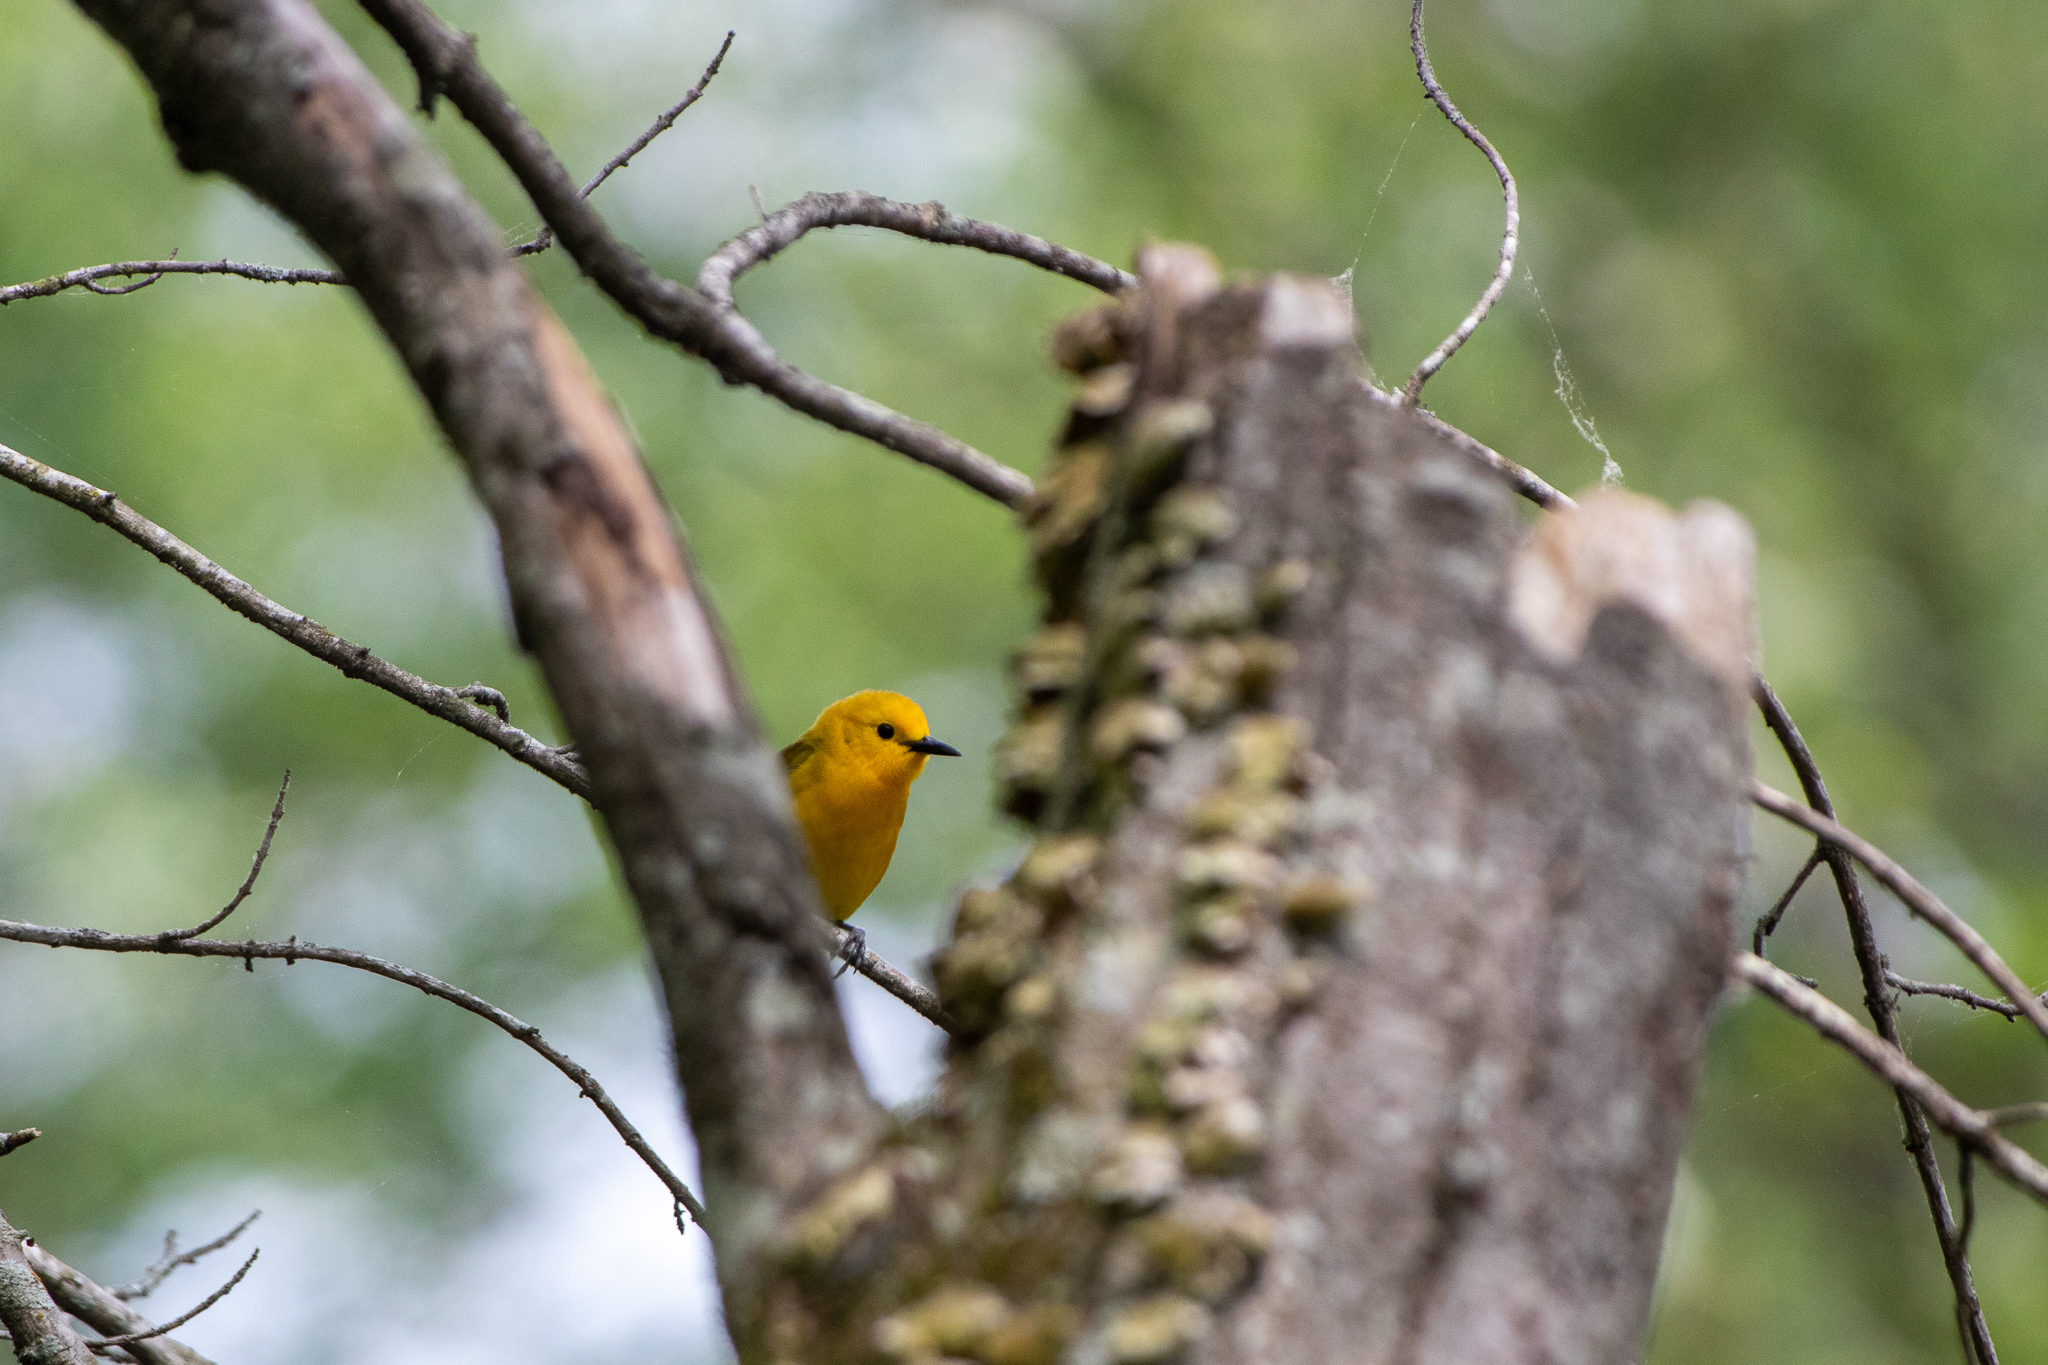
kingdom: Animalia
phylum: Chordata
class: Aves
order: Passeriformes
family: Parulidae
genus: Protonotaria
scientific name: Protonotaria citrea
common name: Prothonotary warbler
